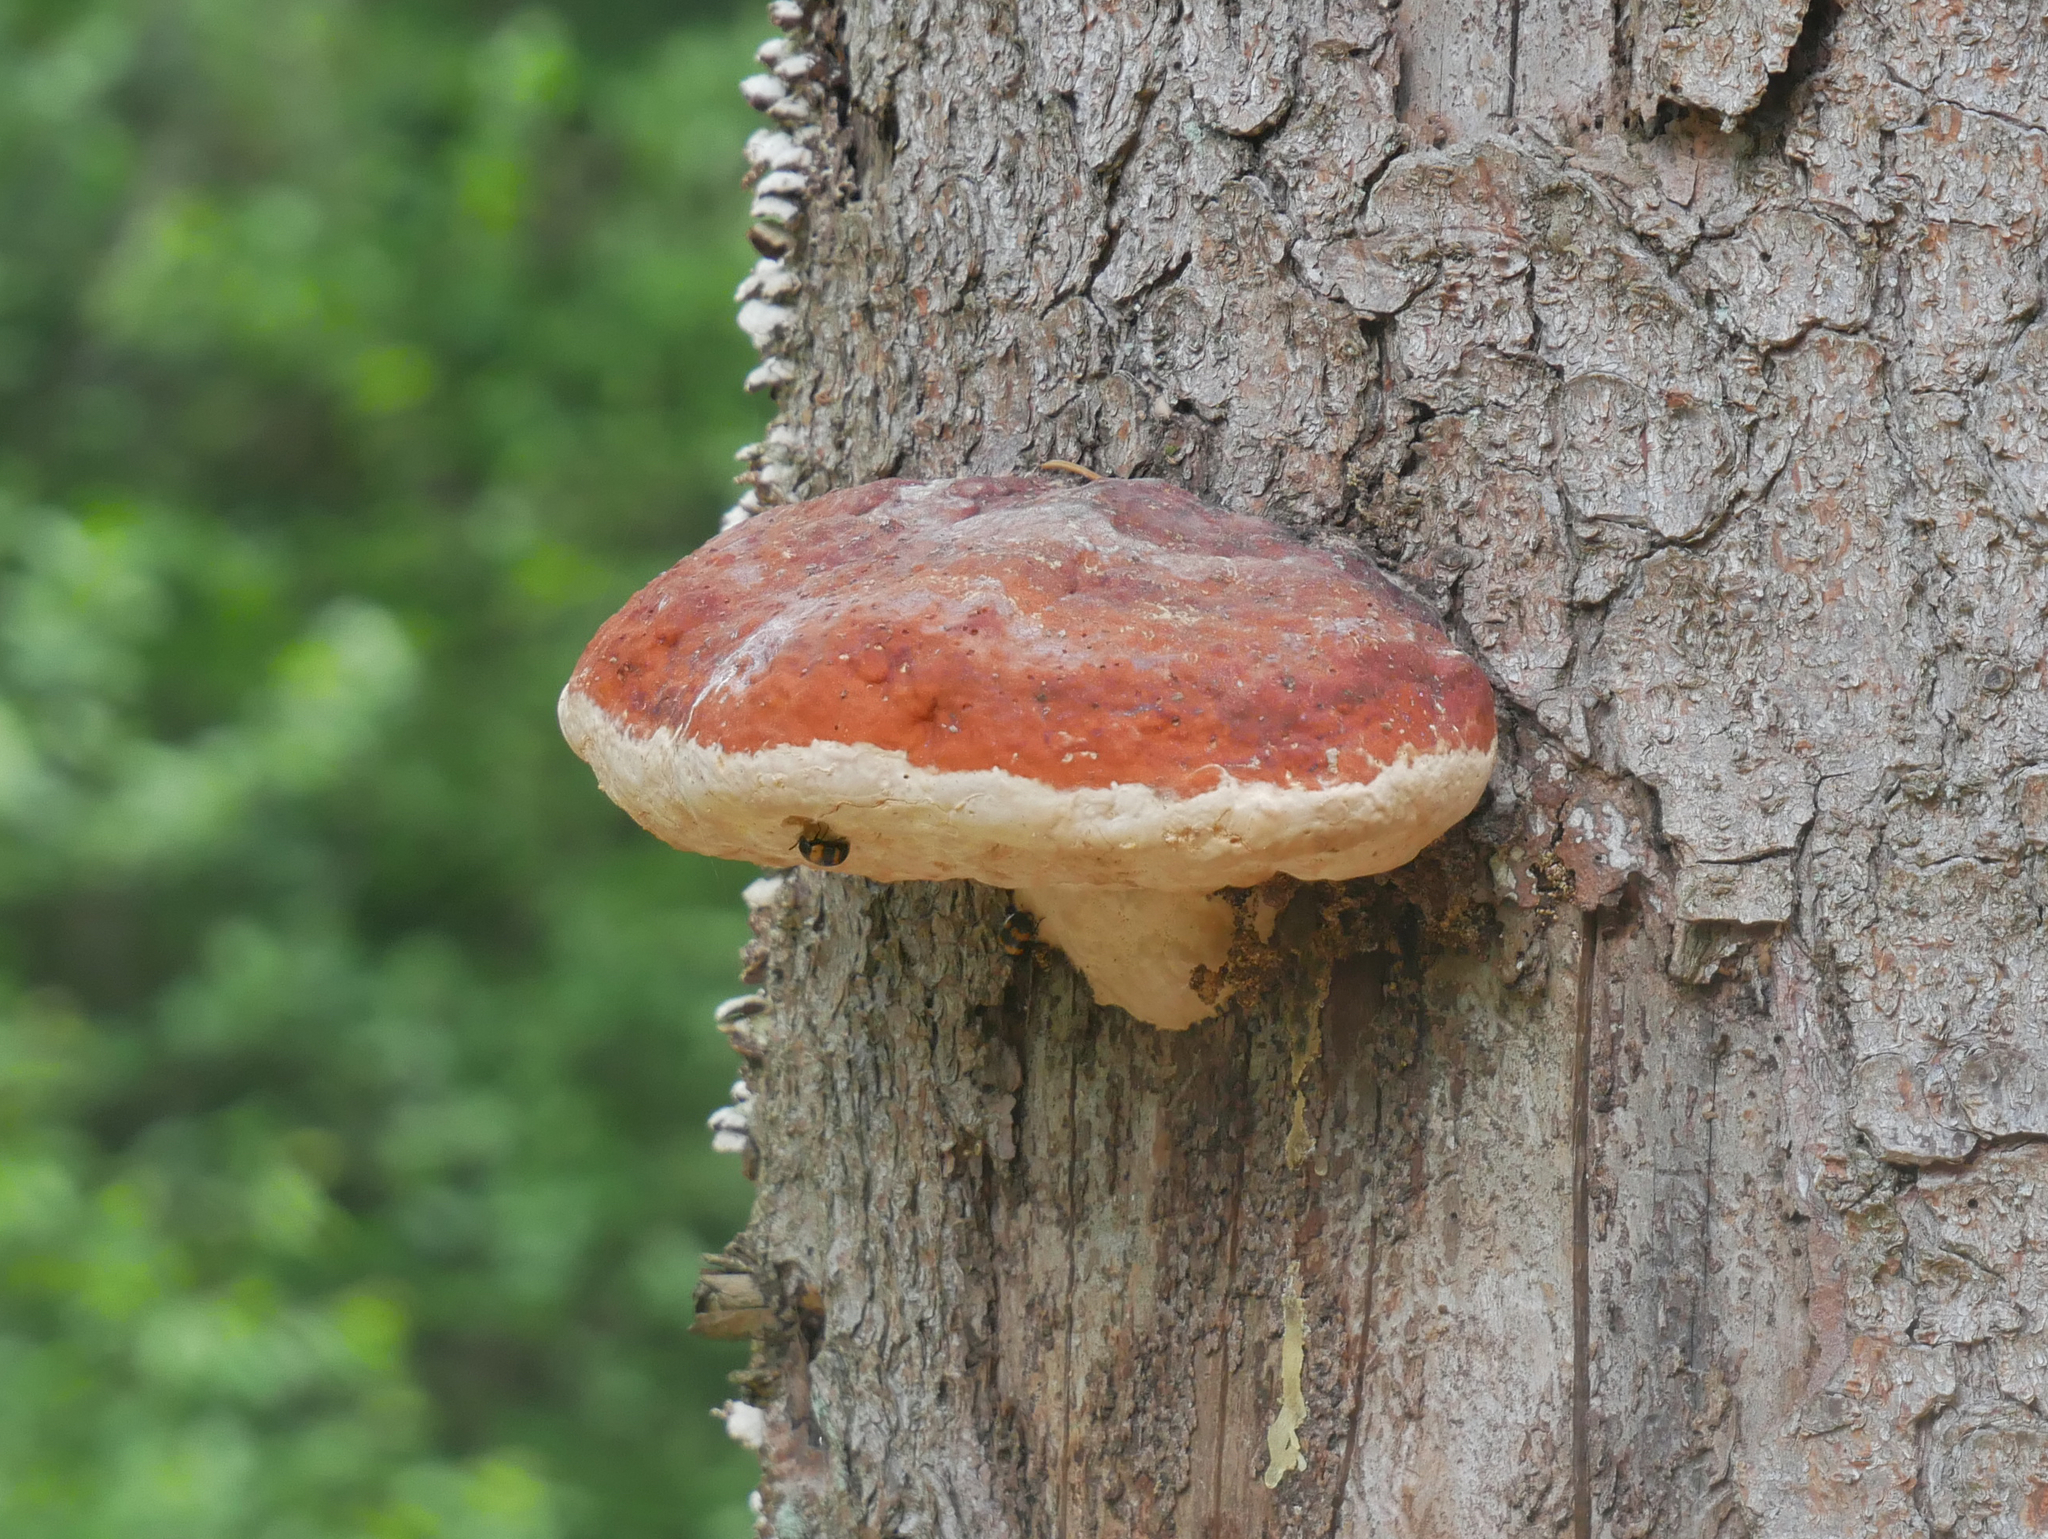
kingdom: Fungi
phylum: Basidiomycota
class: Agaricomycetes
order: Polyporales
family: Fomitopsidaceae
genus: Fomitopsis
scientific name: Fomitopsis pinicola
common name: Red-belted bracket
